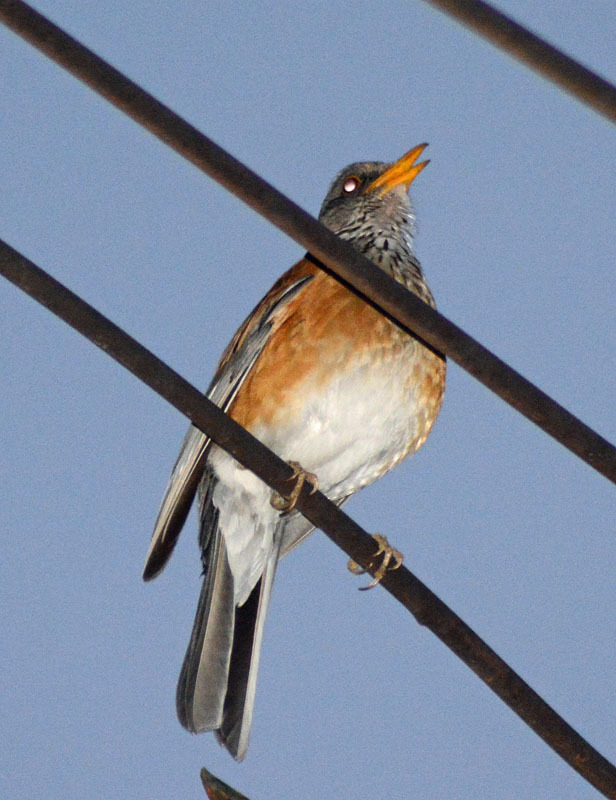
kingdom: Animalia
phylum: Chordata
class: Aves
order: Passeriformes
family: Turdidae
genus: Turdus
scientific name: Turdus rufopalliatus
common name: Rufous-backed robin
